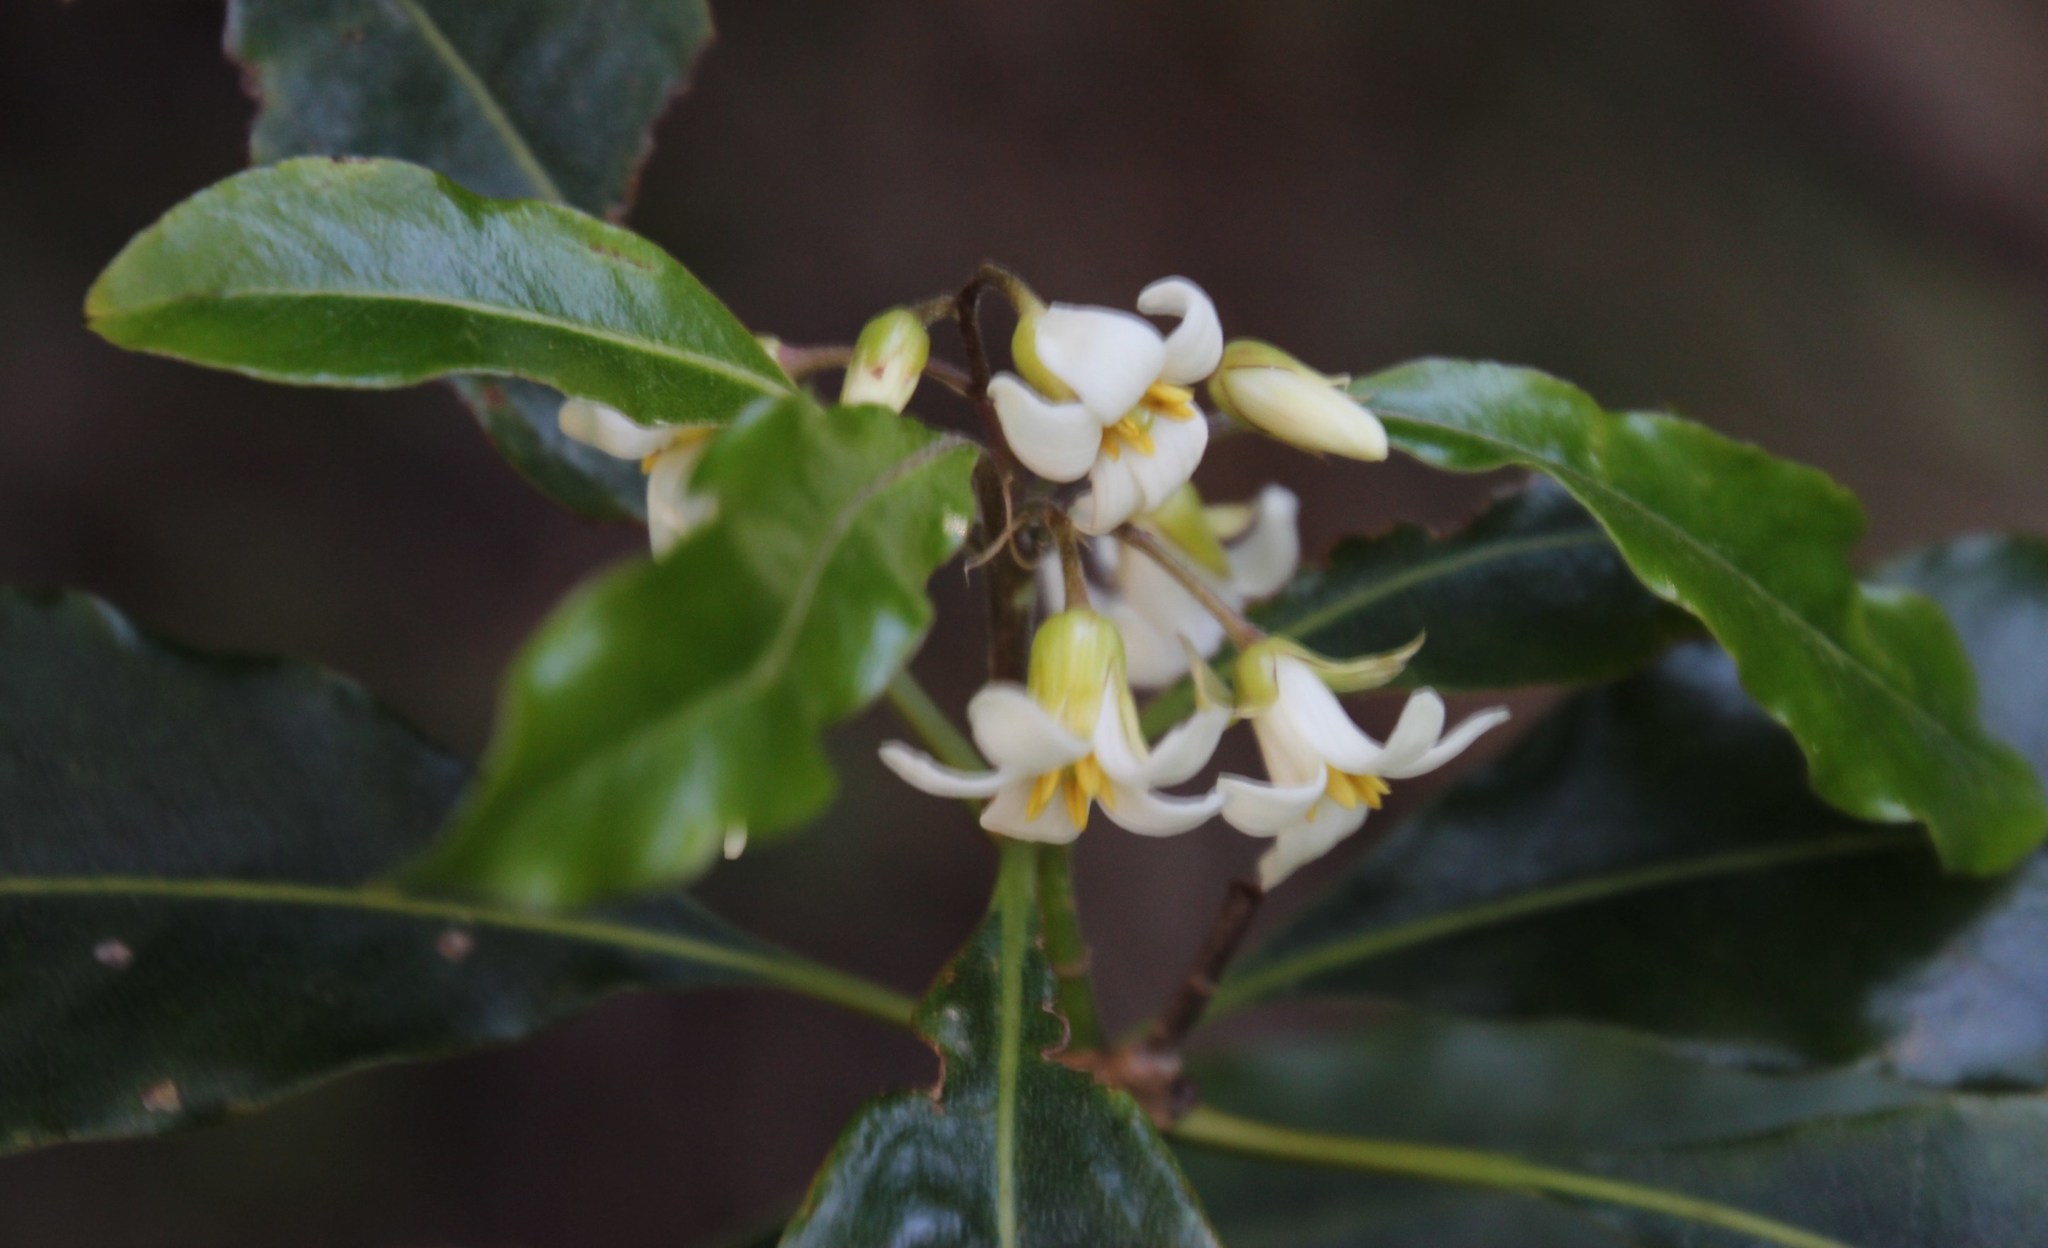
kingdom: Plantae
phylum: Tracheophyta
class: Magnoliopsida
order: Apiales
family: Pittosporaceae
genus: Pittosporum
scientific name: Pittosporum undulatum
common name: Australian cheesewood
